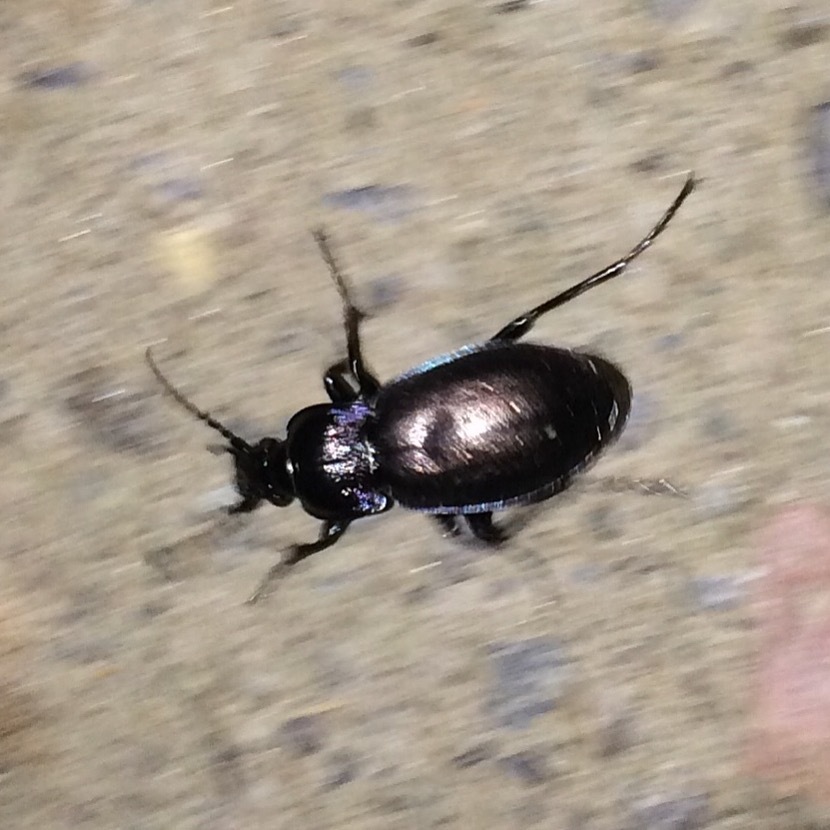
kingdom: Animalia
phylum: Arthropoda
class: Insecta
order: Coleoptera
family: Carabidae
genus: Carabus
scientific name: Carabus nemoralis
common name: European ground beetle
